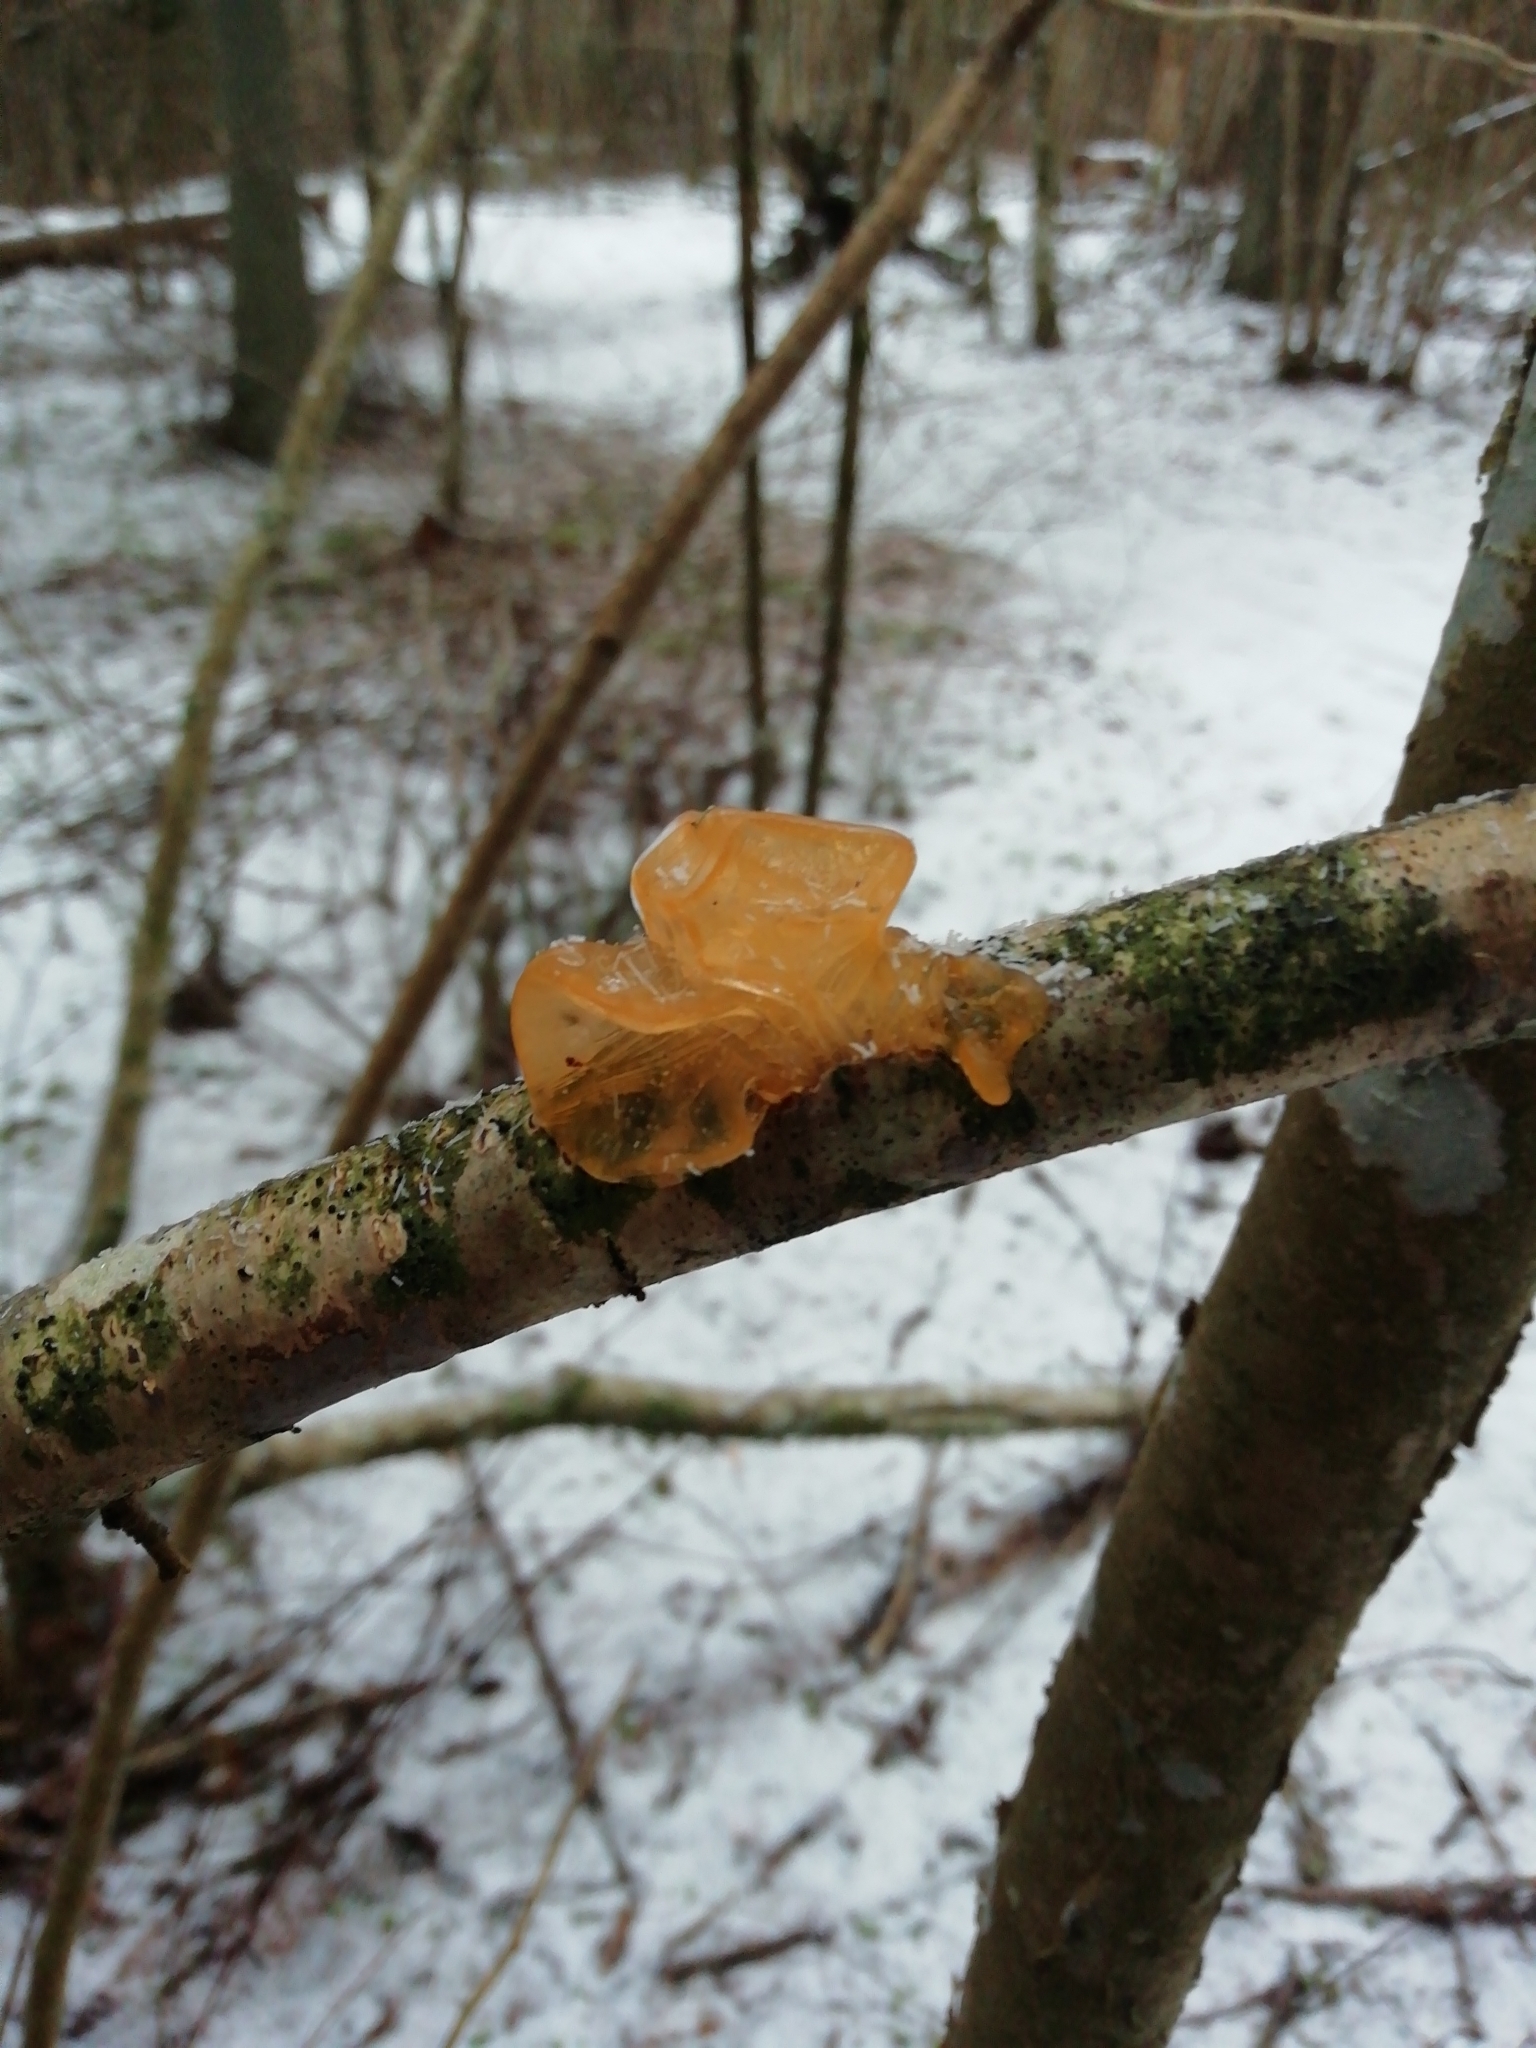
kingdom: Fungi
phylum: Basidiomycota
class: Tremellomycetes
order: Tremellales
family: Tremellaceae
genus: Tremella
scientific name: Tremella mesenterica
